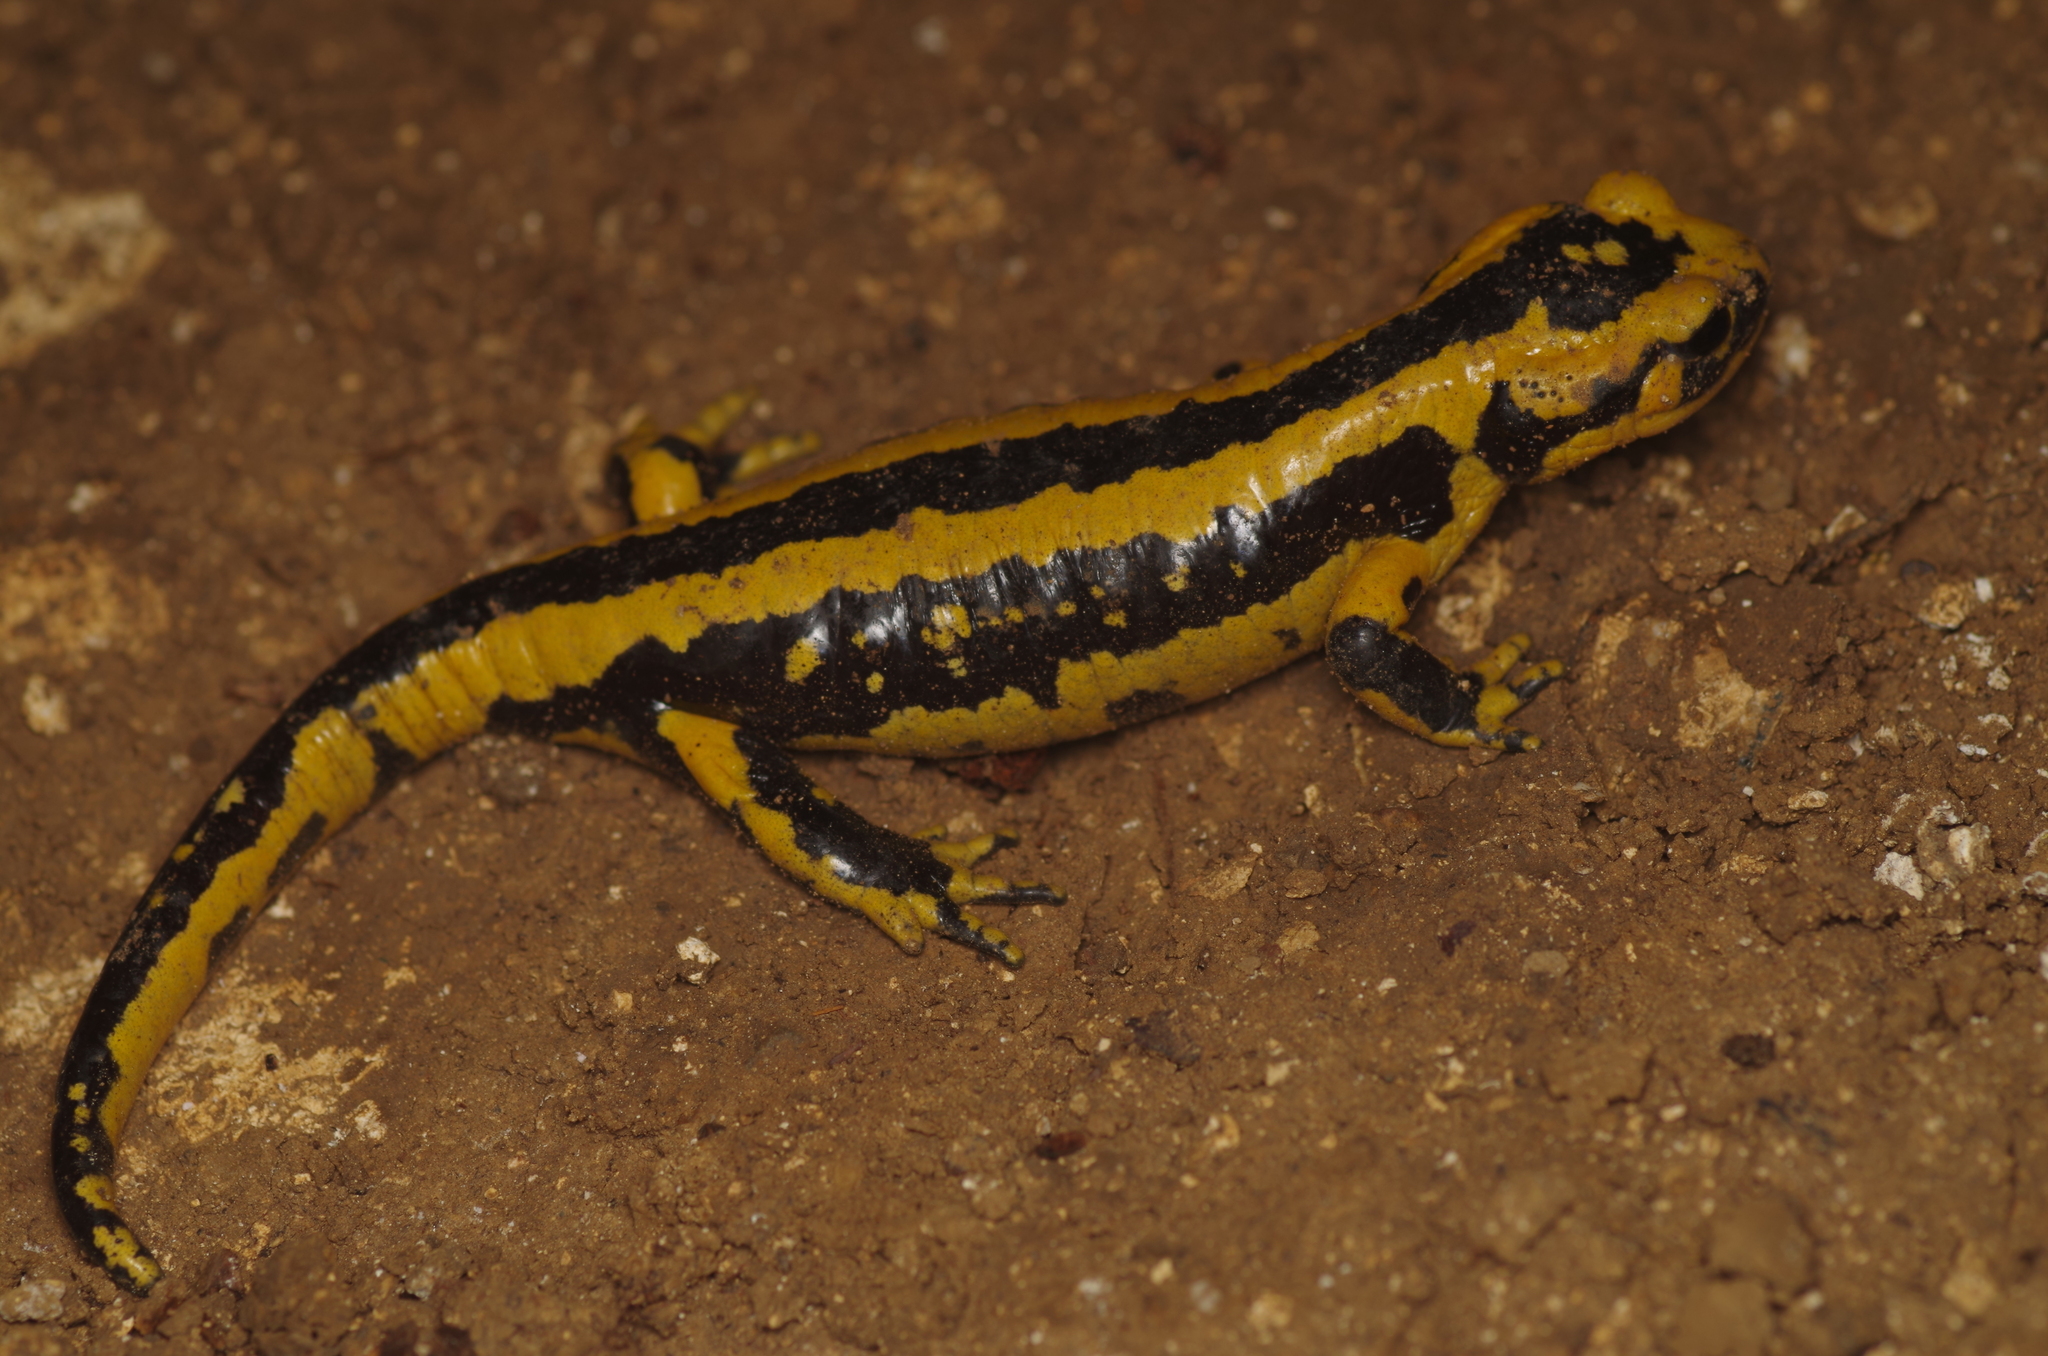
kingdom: Animalia
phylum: Chordata
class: Amphibia
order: Caudata
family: Salamandridae
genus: Salamandra
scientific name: Salamandra salamandra
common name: Fire salamander
